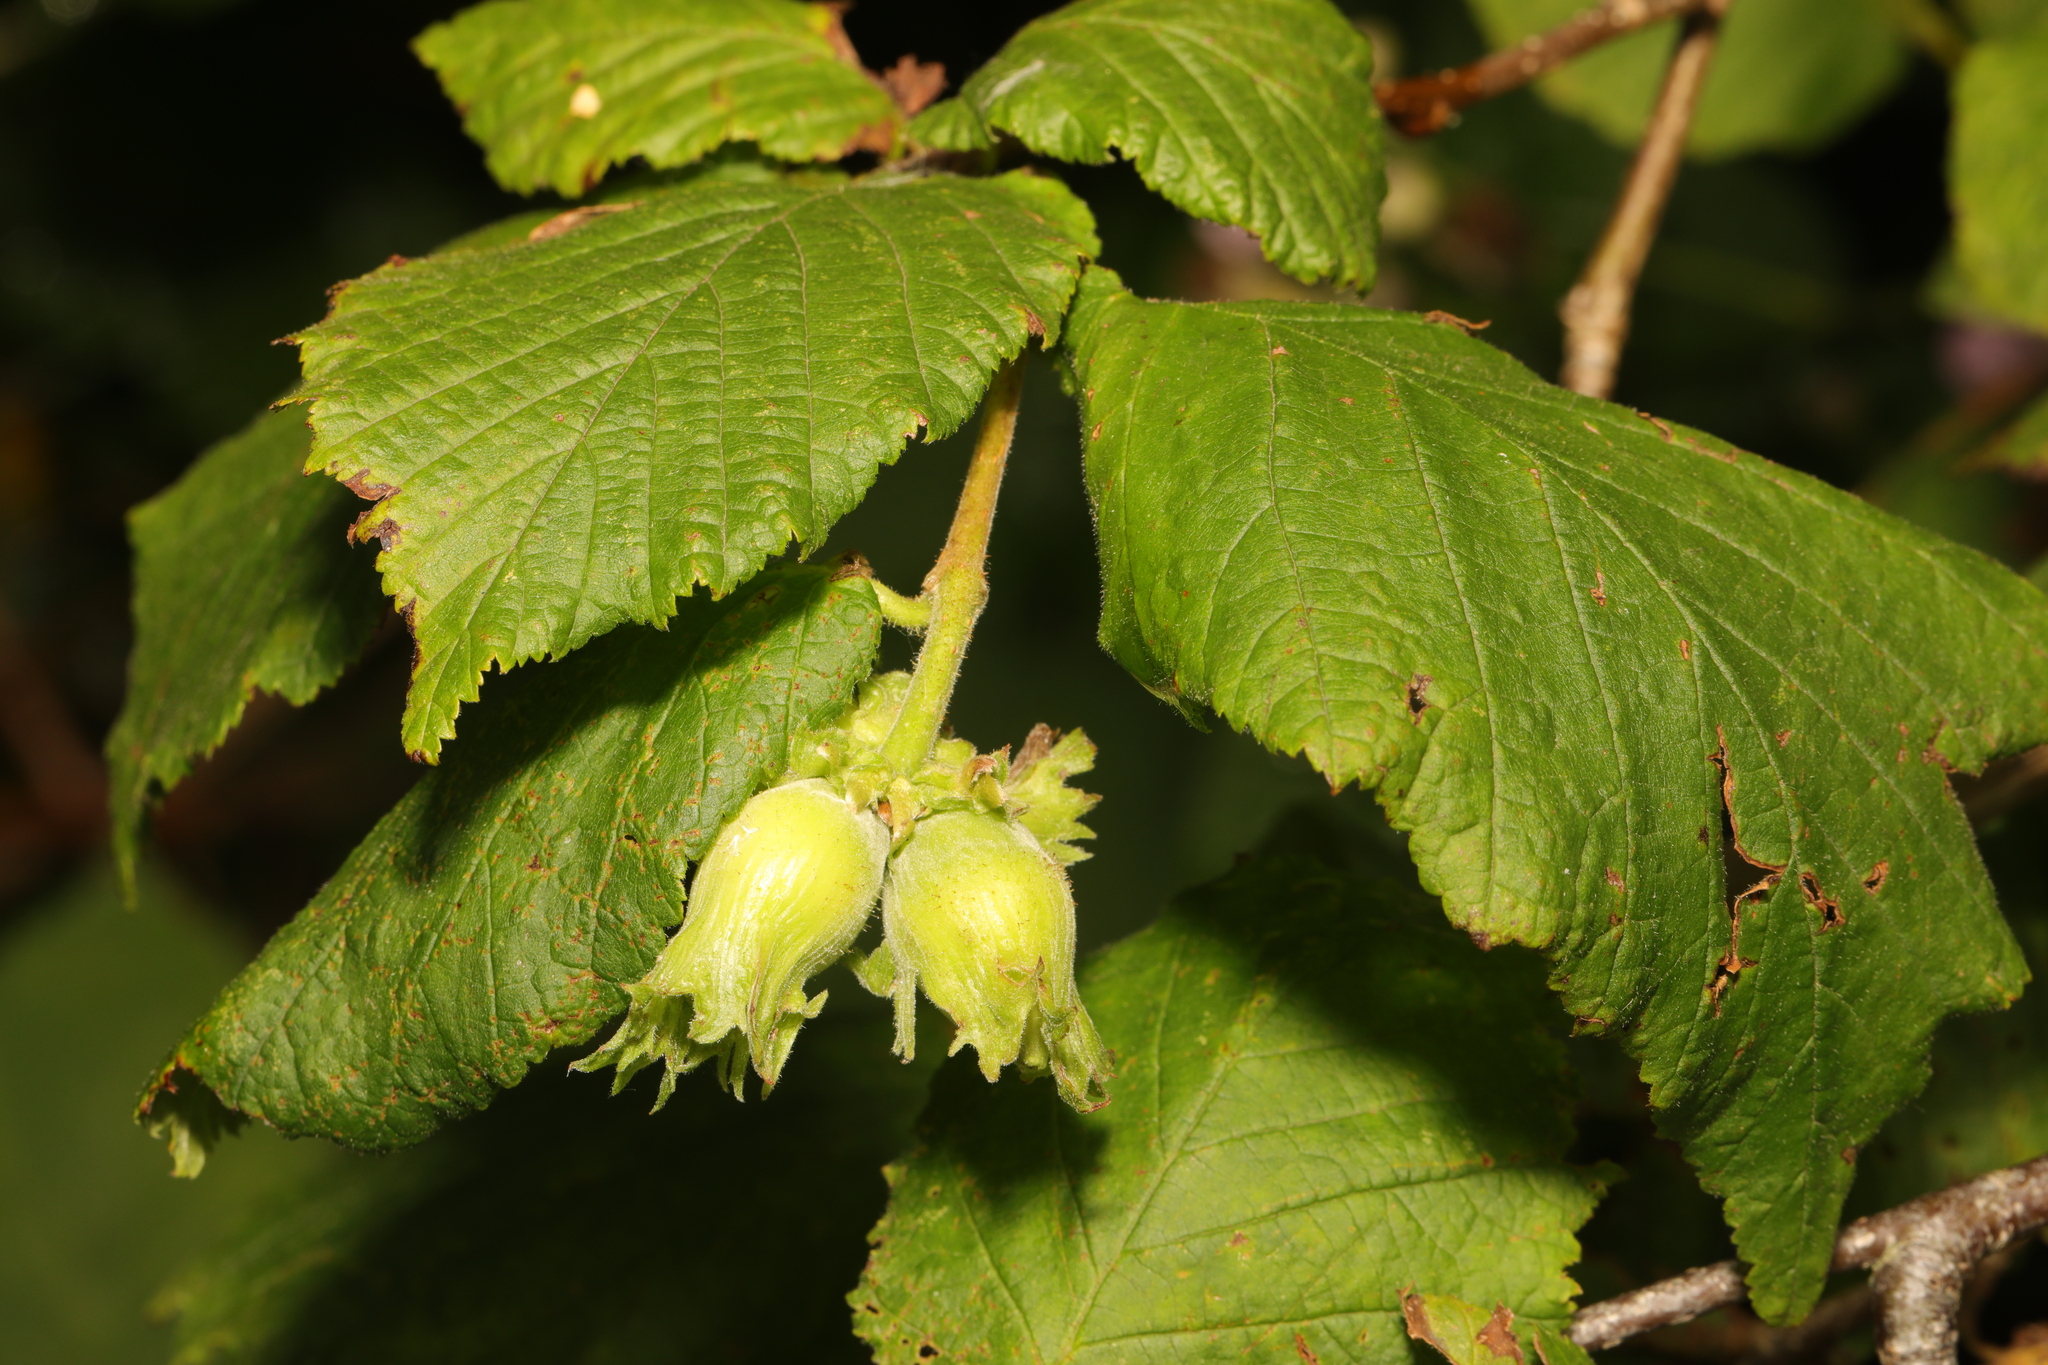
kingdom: Plantae
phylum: Tracheophyta
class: Magnoliopsida
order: Fagales
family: Betulaceae
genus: Corylus
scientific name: Corylus avellana
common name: European hazel
